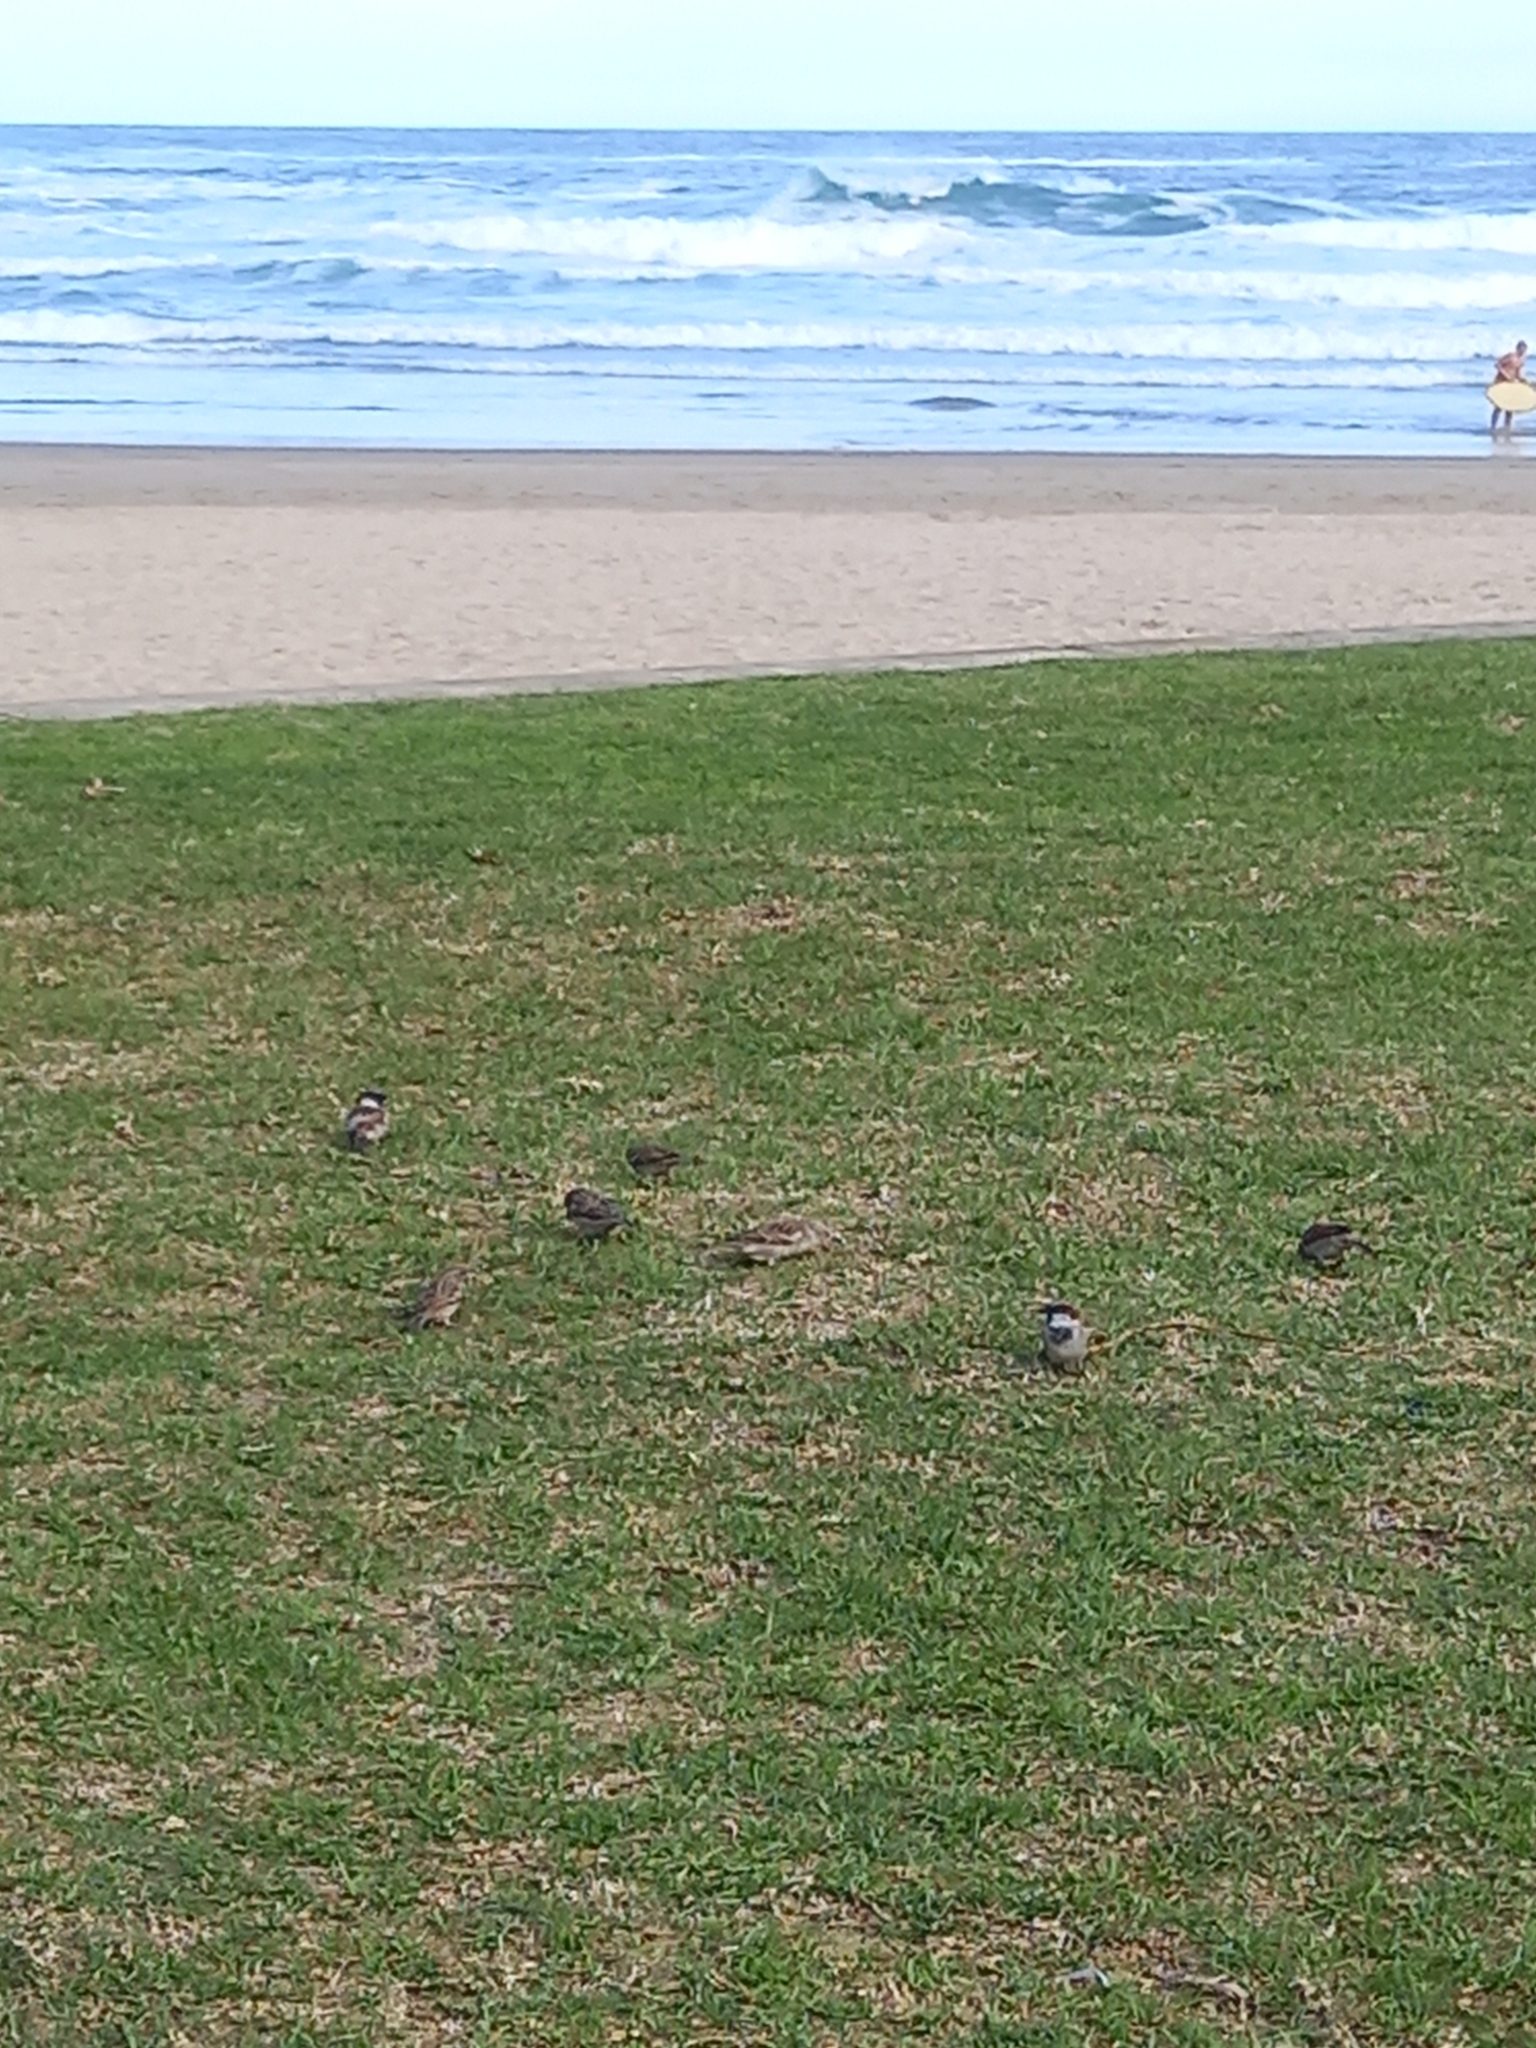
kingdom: Animalia
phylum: Chordata
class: Aves
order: Passeriformes
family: Passeridae
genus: Passer
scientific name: Passer domesticus
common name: House sparrow
